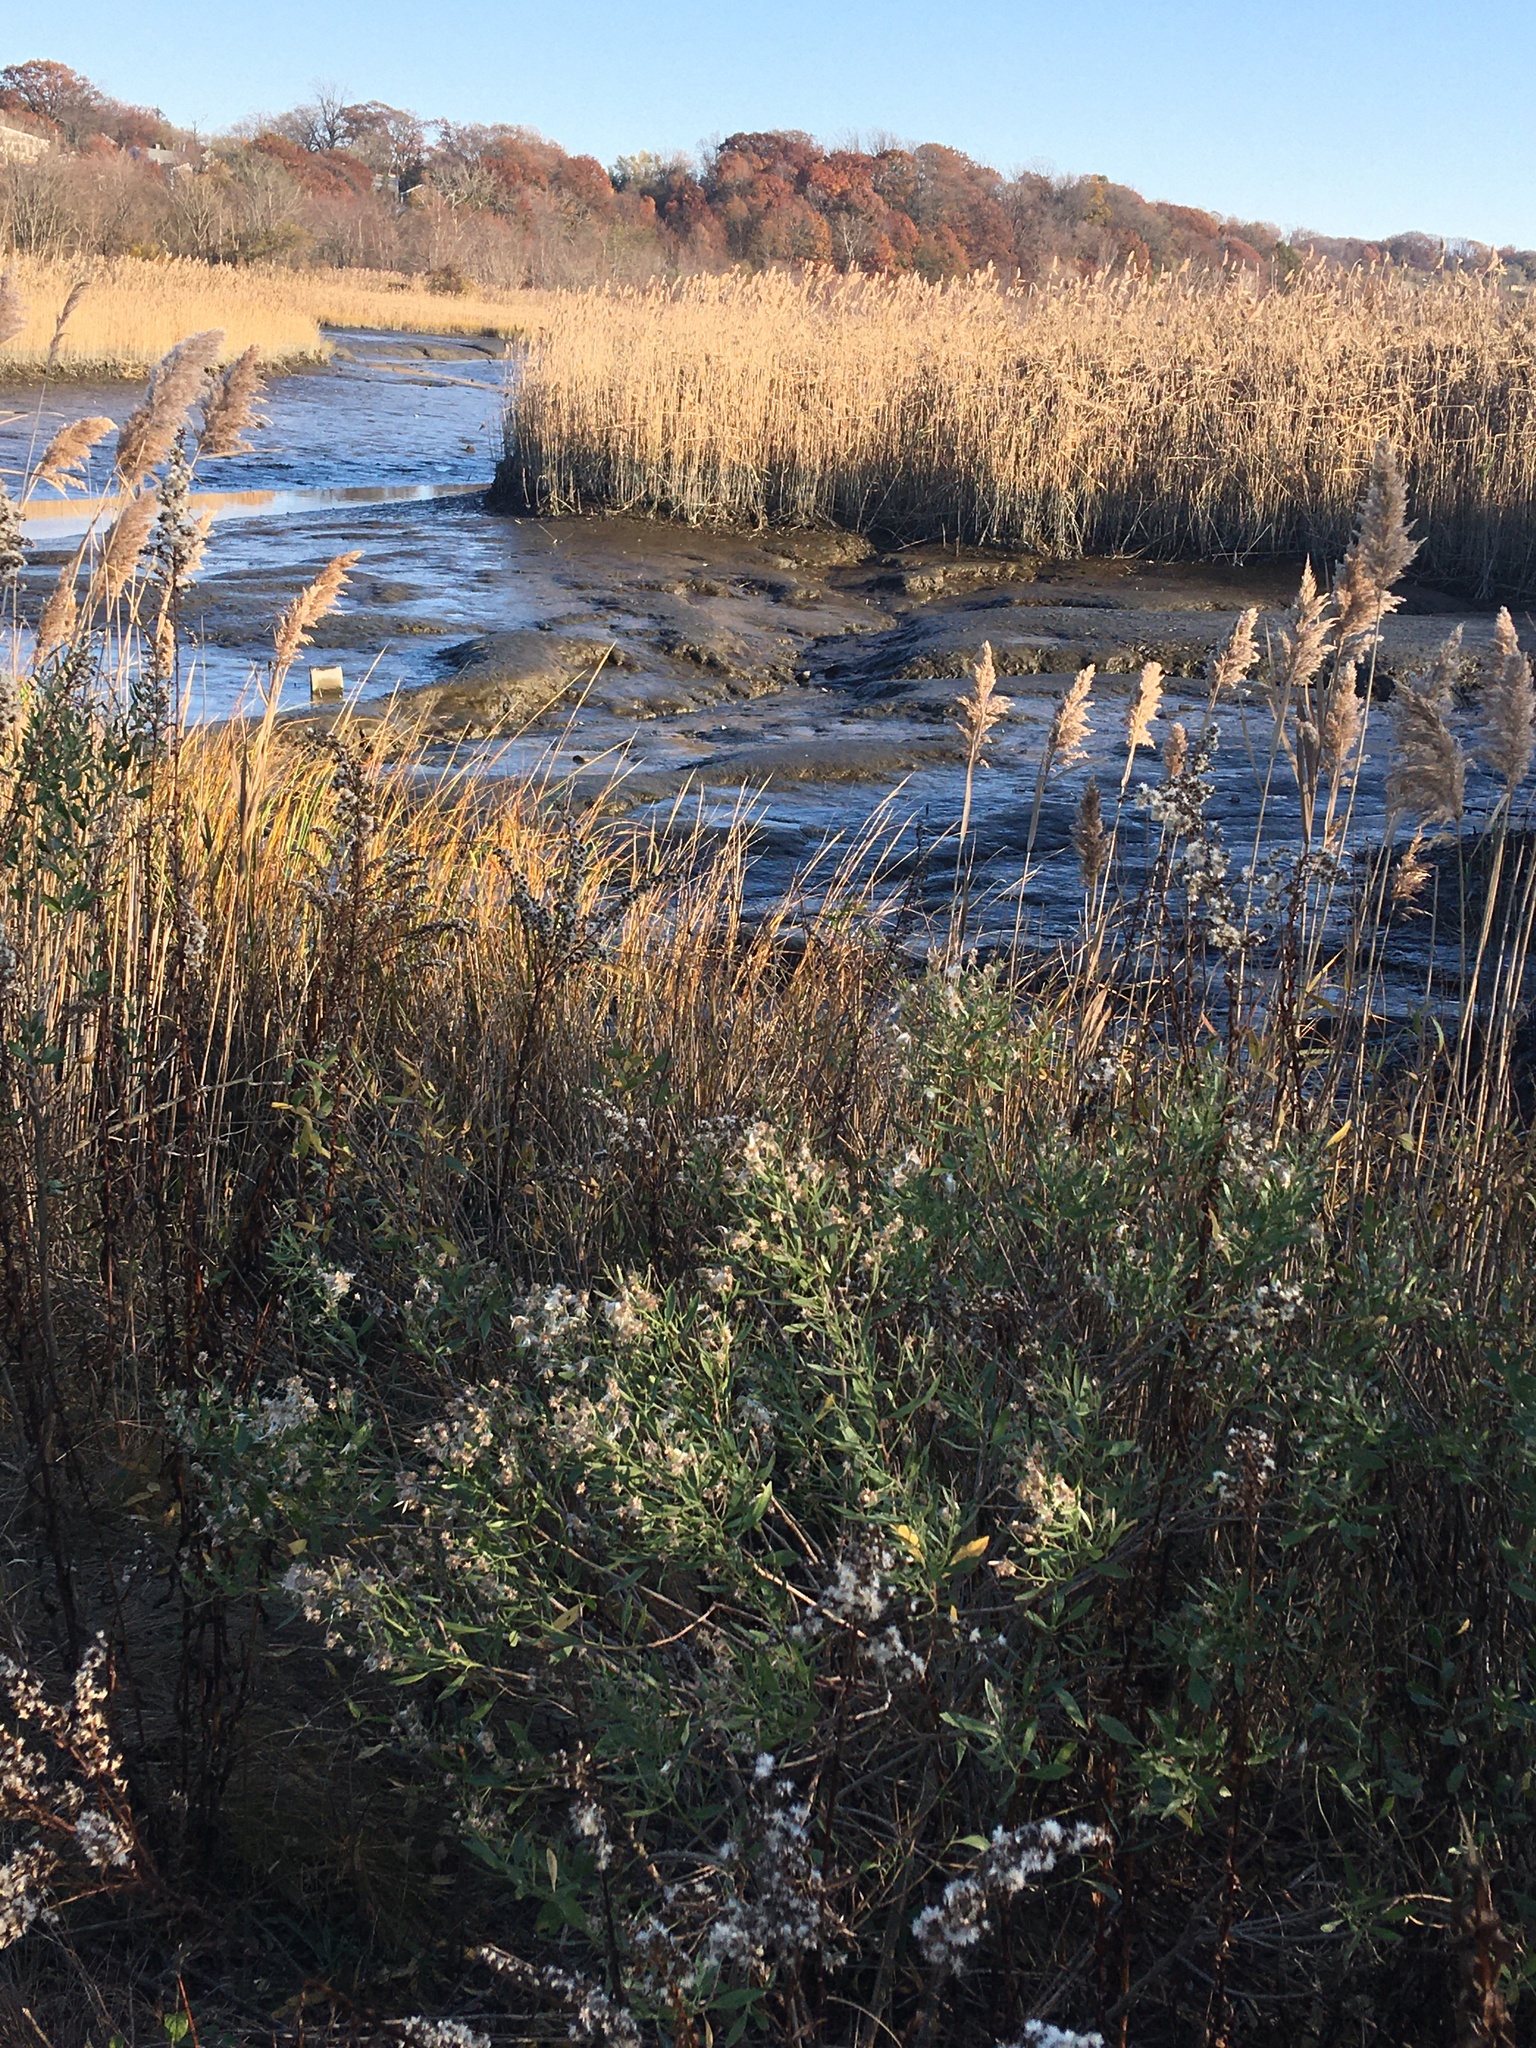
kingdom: Plantae
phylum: Tracheophyta
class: Magnoliopsida
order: Asterales
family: Asteraceae
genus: Baccharis
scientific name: Baccharis halimifolia
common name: Eastern baccharis
